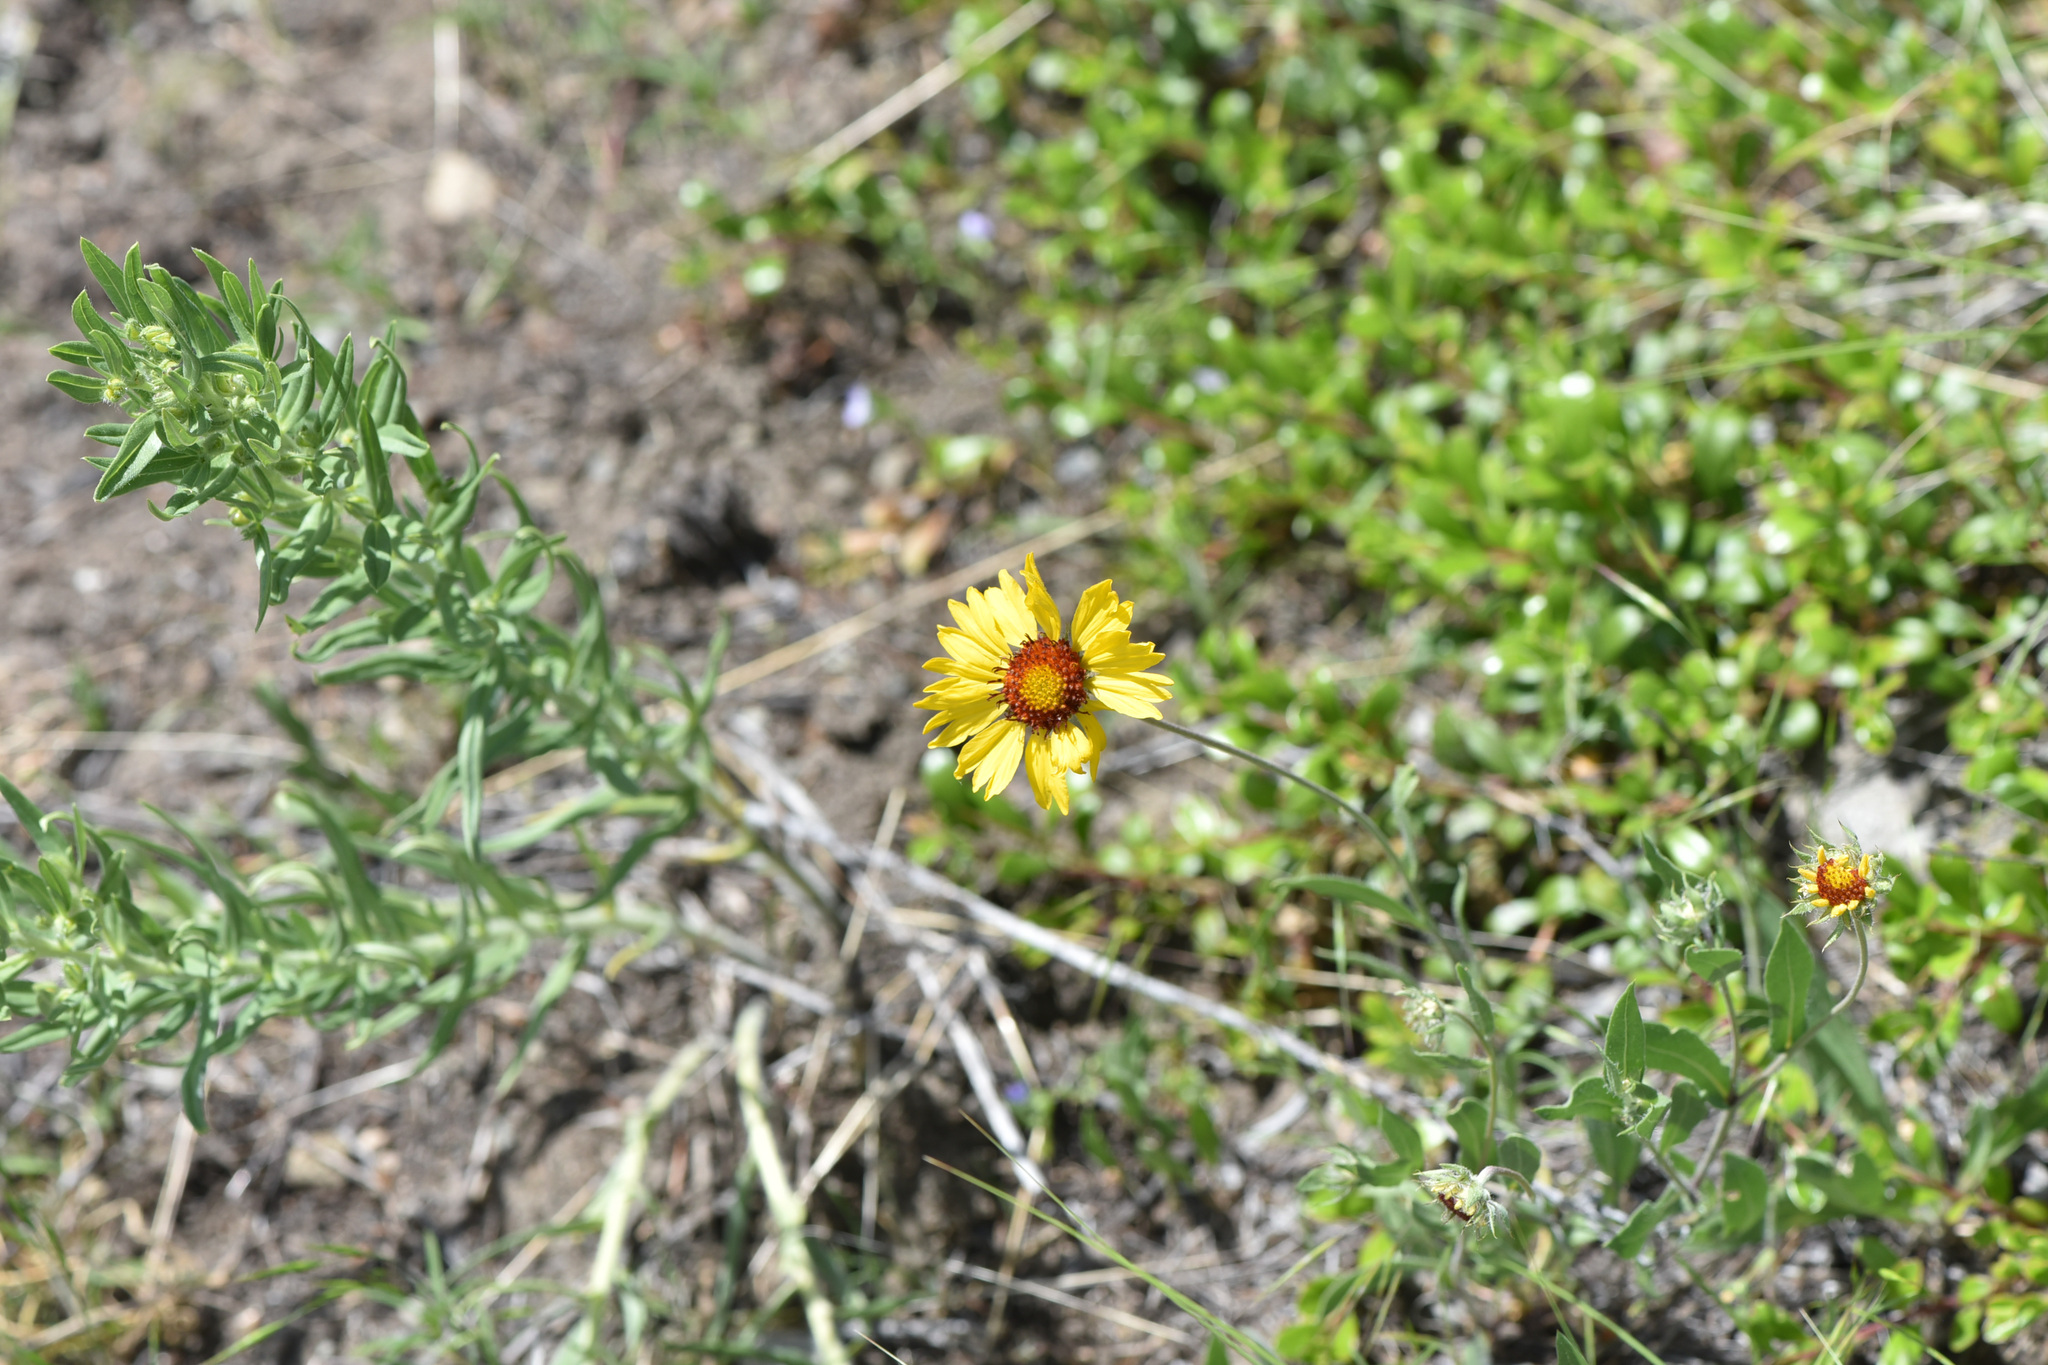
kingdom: Plantae
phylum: Tracheophyta
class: Magnoliopsida
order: Asterales
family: Asteraceae
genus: Gaillardia
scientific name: Gaillardia aristata
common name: Blanket-flower
